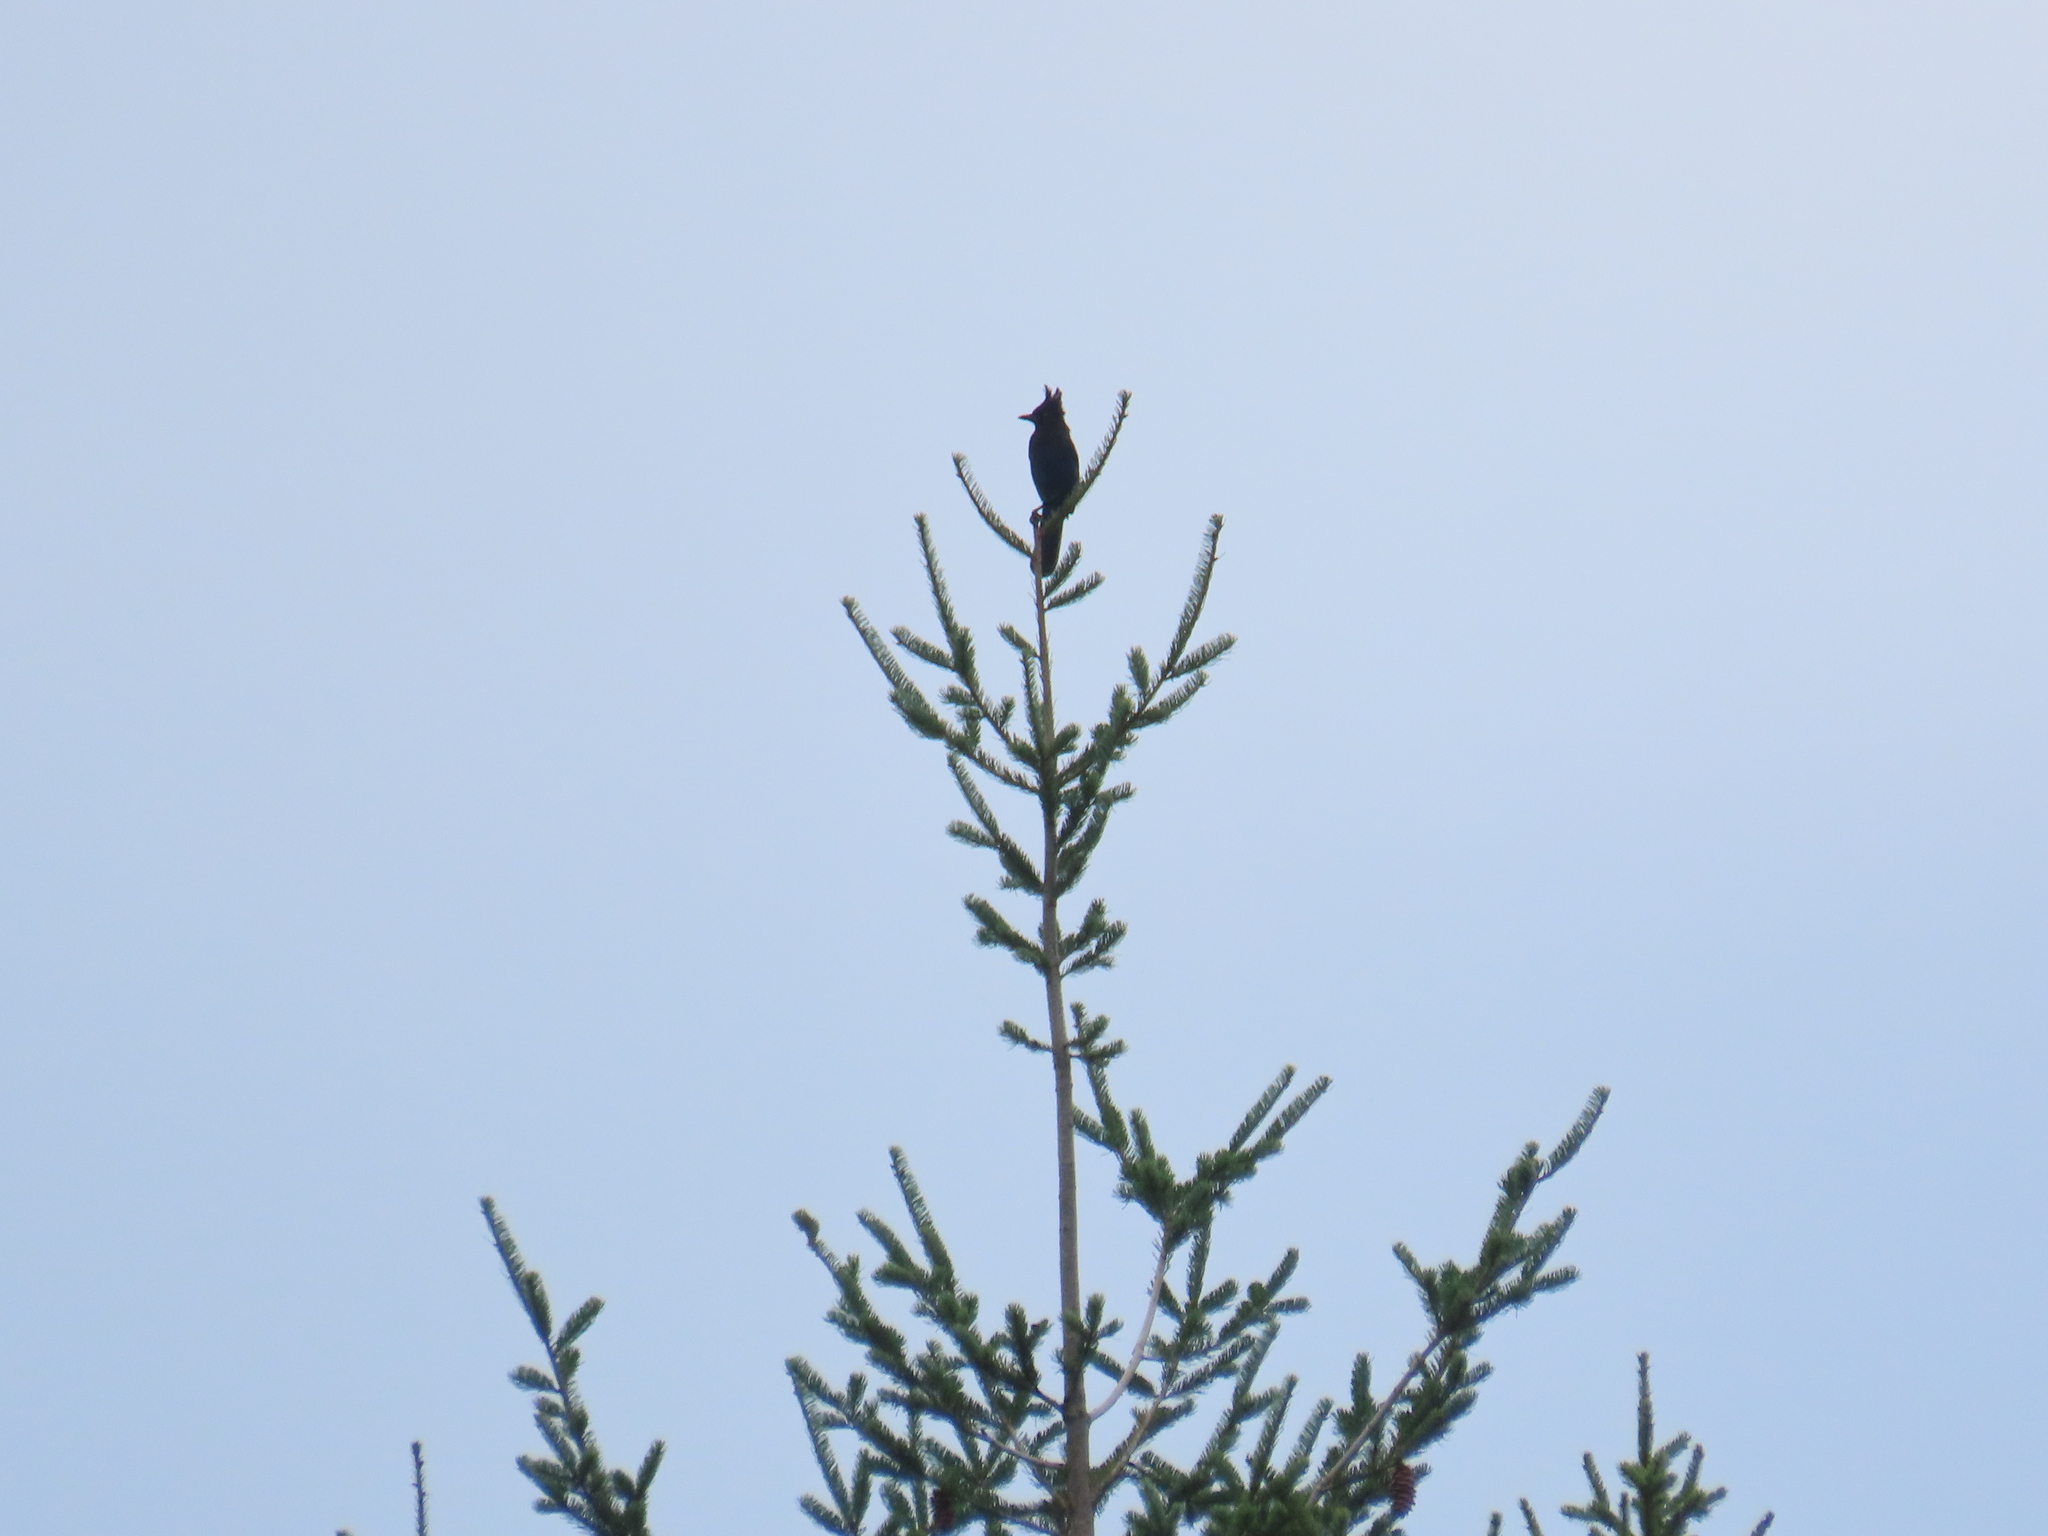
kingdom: Animalia
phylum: Chordata
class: Aves
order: Passeriformes
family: Corvidae
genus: Cyanocitta
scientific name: Cyanocitta stelleri
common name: Steller's jay
